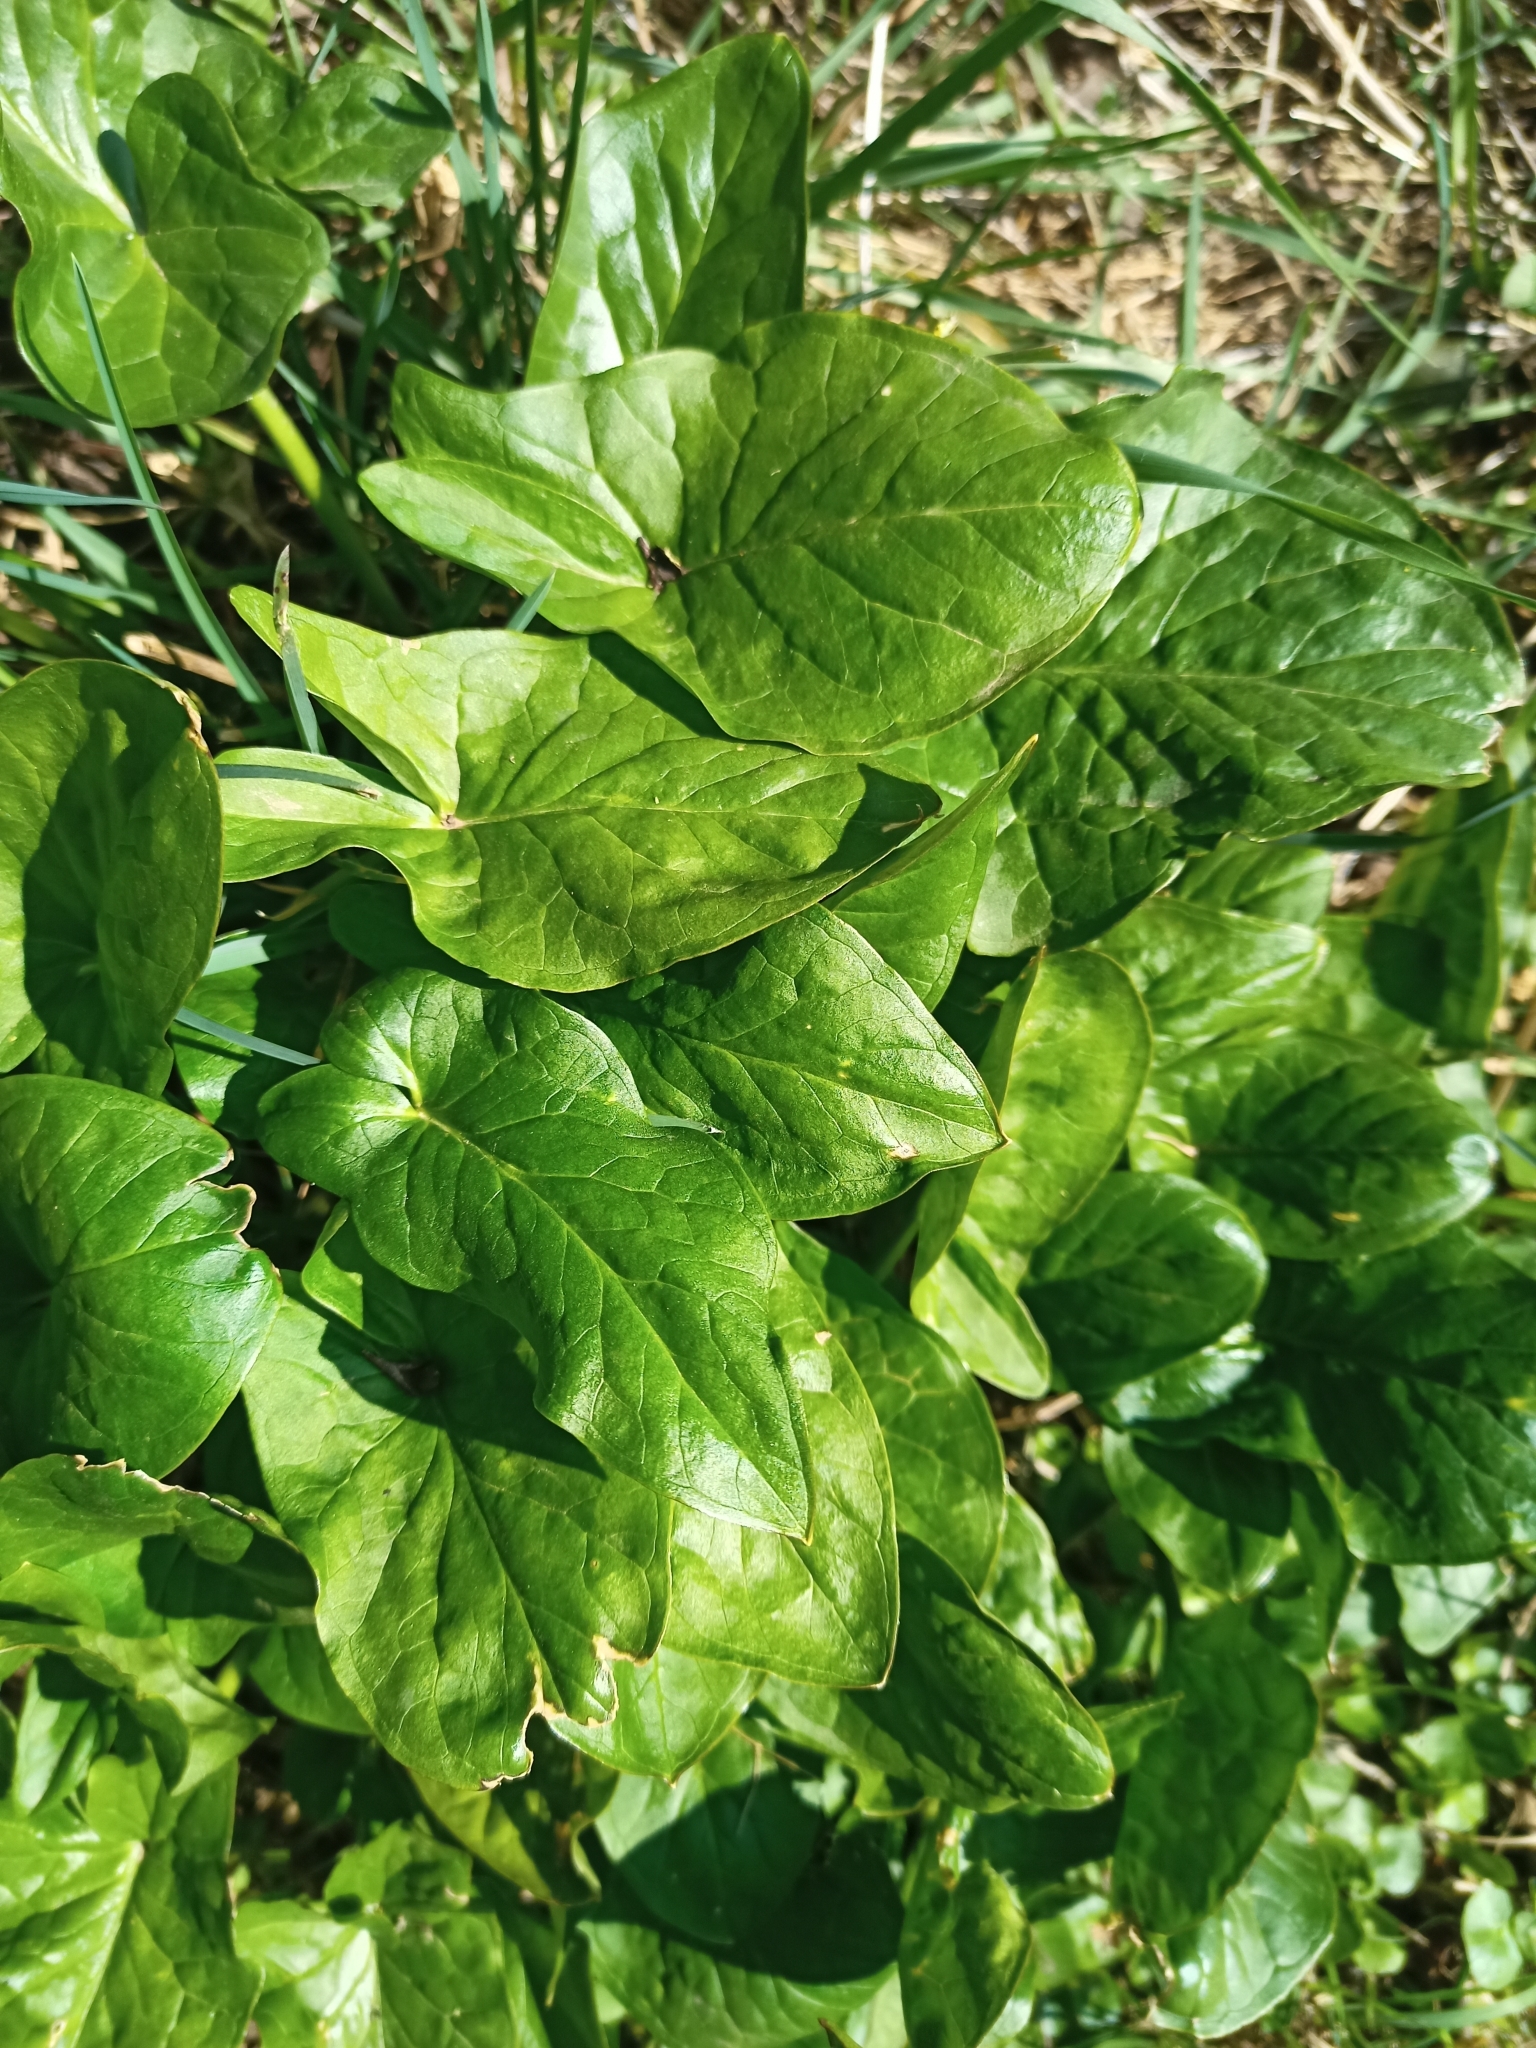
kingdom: Plantae
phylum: Tracheophyta
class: Liliopsida
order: Alismatales
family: Araceae
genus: Arum
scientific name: Arum maculatum
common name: Lords-and-ladies
